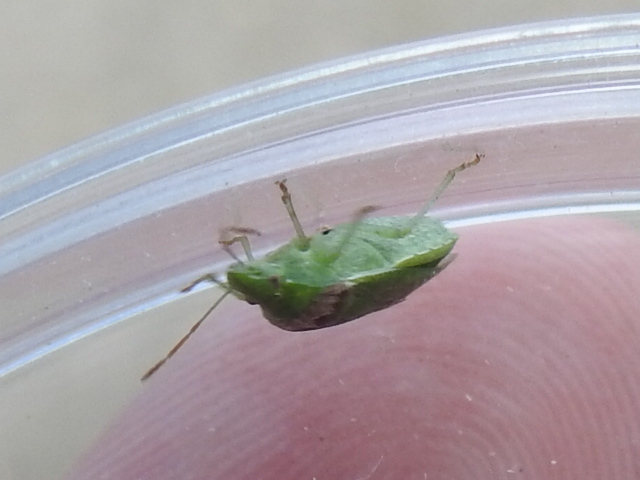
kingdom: Animalia
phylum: Arthropoda
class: Insecta
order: Hemiptera
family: Pentatomidae
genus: Cyptocephala
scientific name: Cyptocephala antiguensis
